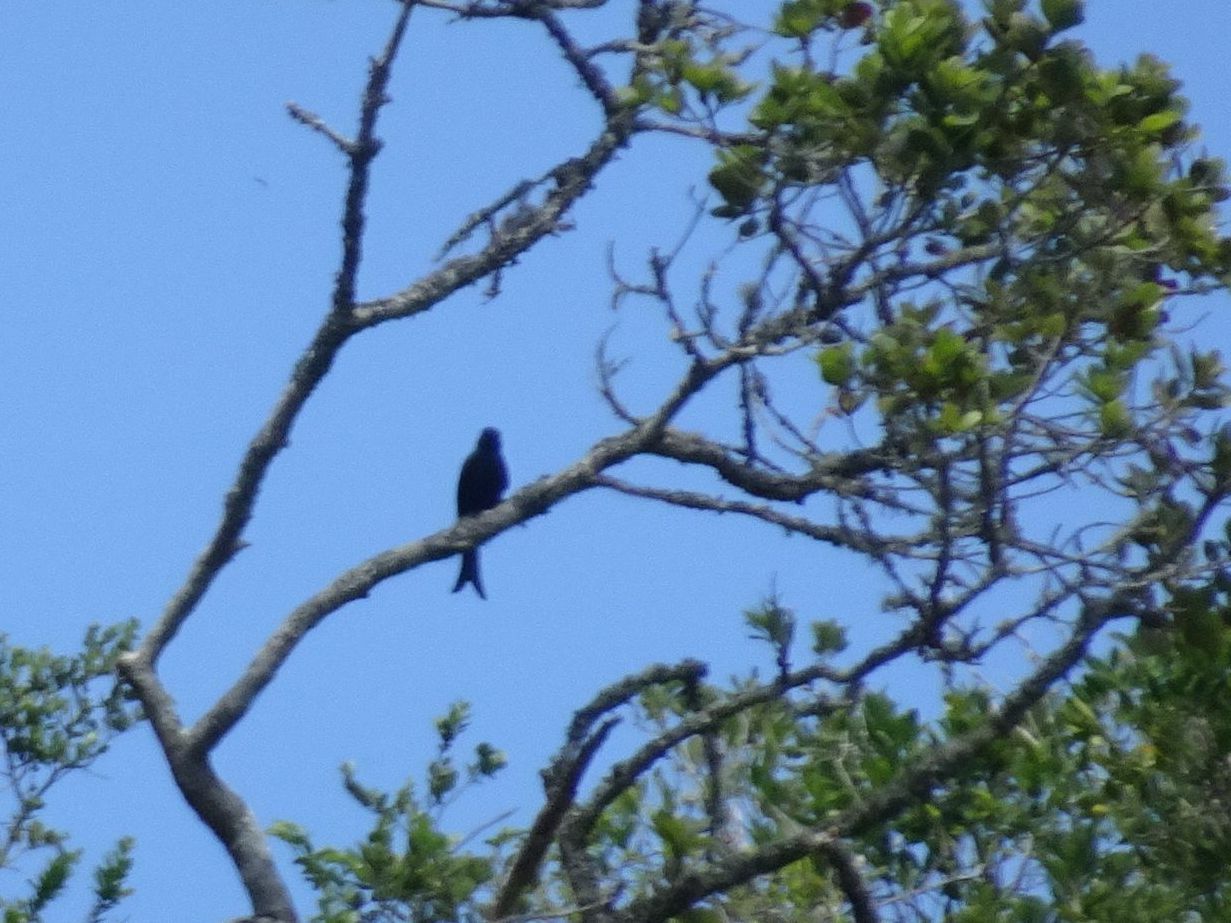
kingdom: Animalia
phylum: Chordata
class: Aves
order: Passeriformes
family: Dicruridae
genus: Dicrurus
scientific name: Dicrurus adsimilis
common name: Fork-tailed drongo
